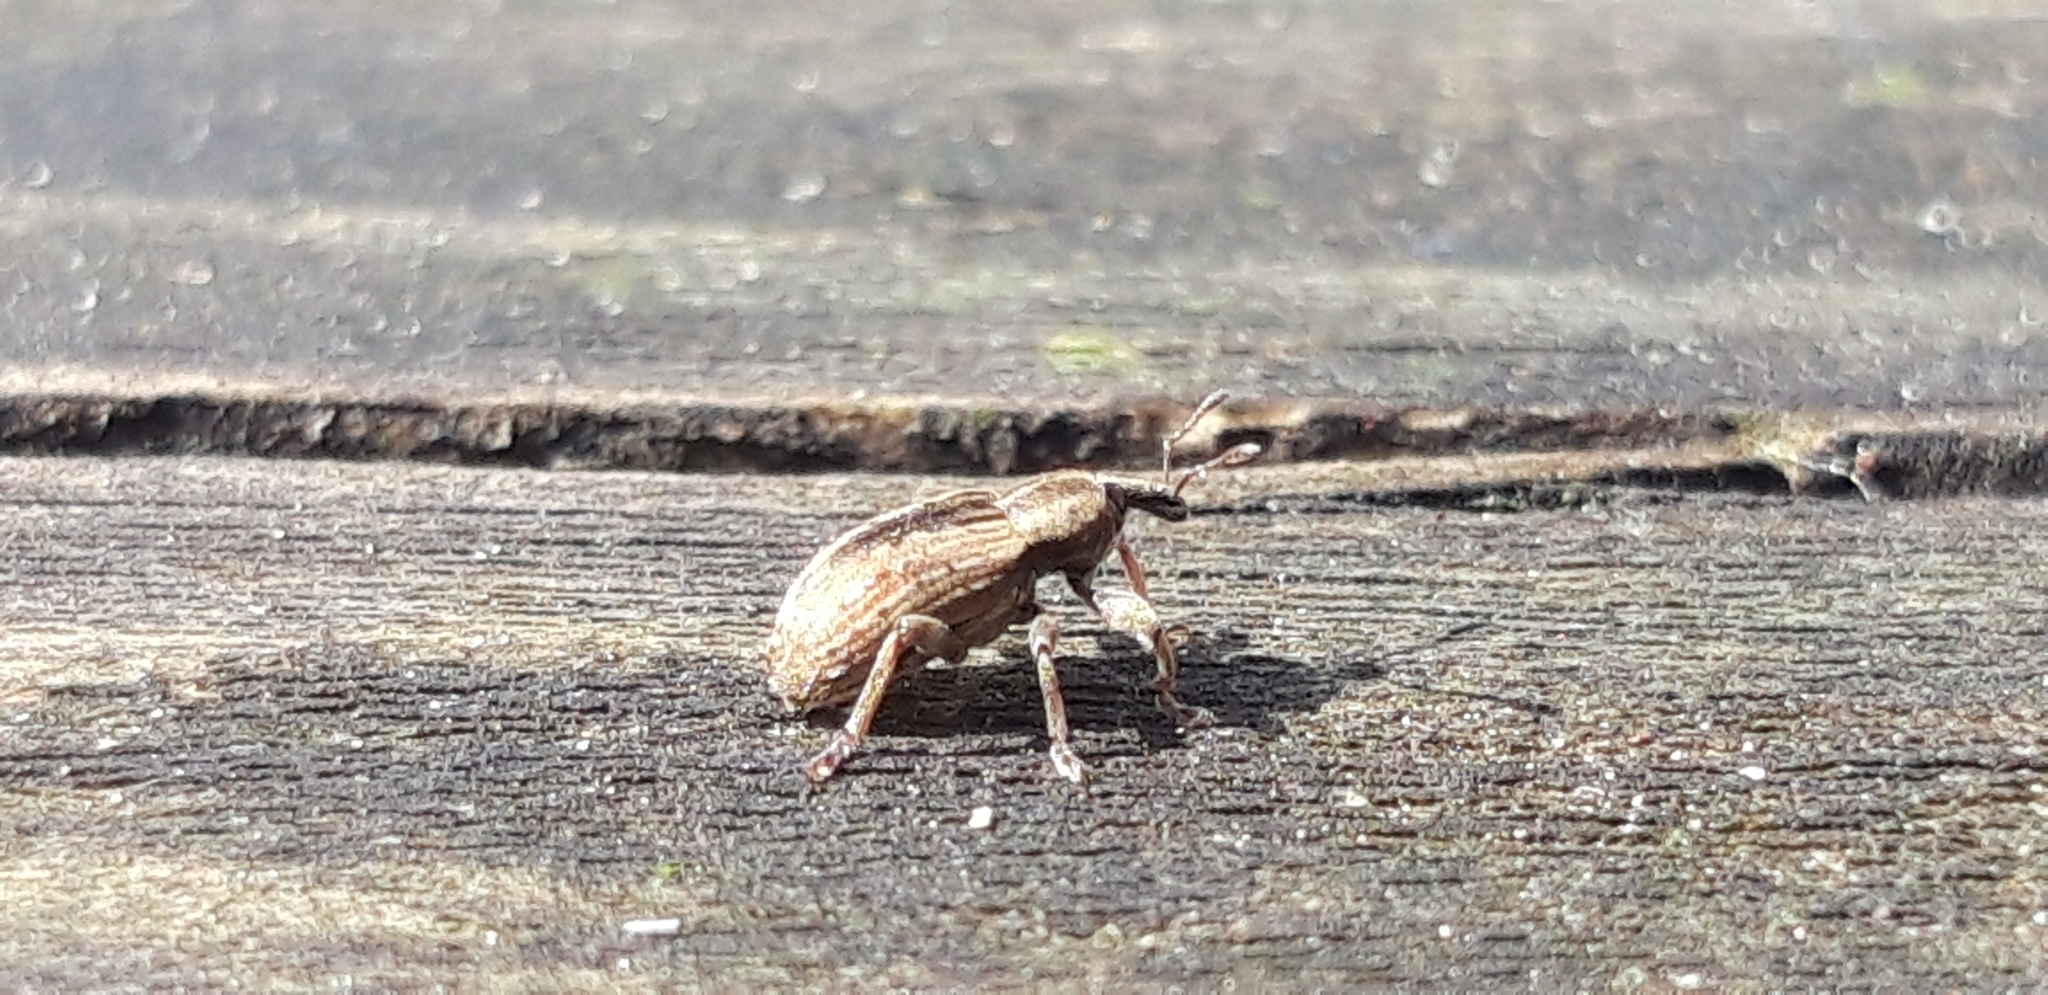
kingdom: Animalia
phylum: Arthropoda
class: Insecta
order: Coleoptera
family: Curculionidae
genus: Hypera
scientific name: Hypera
